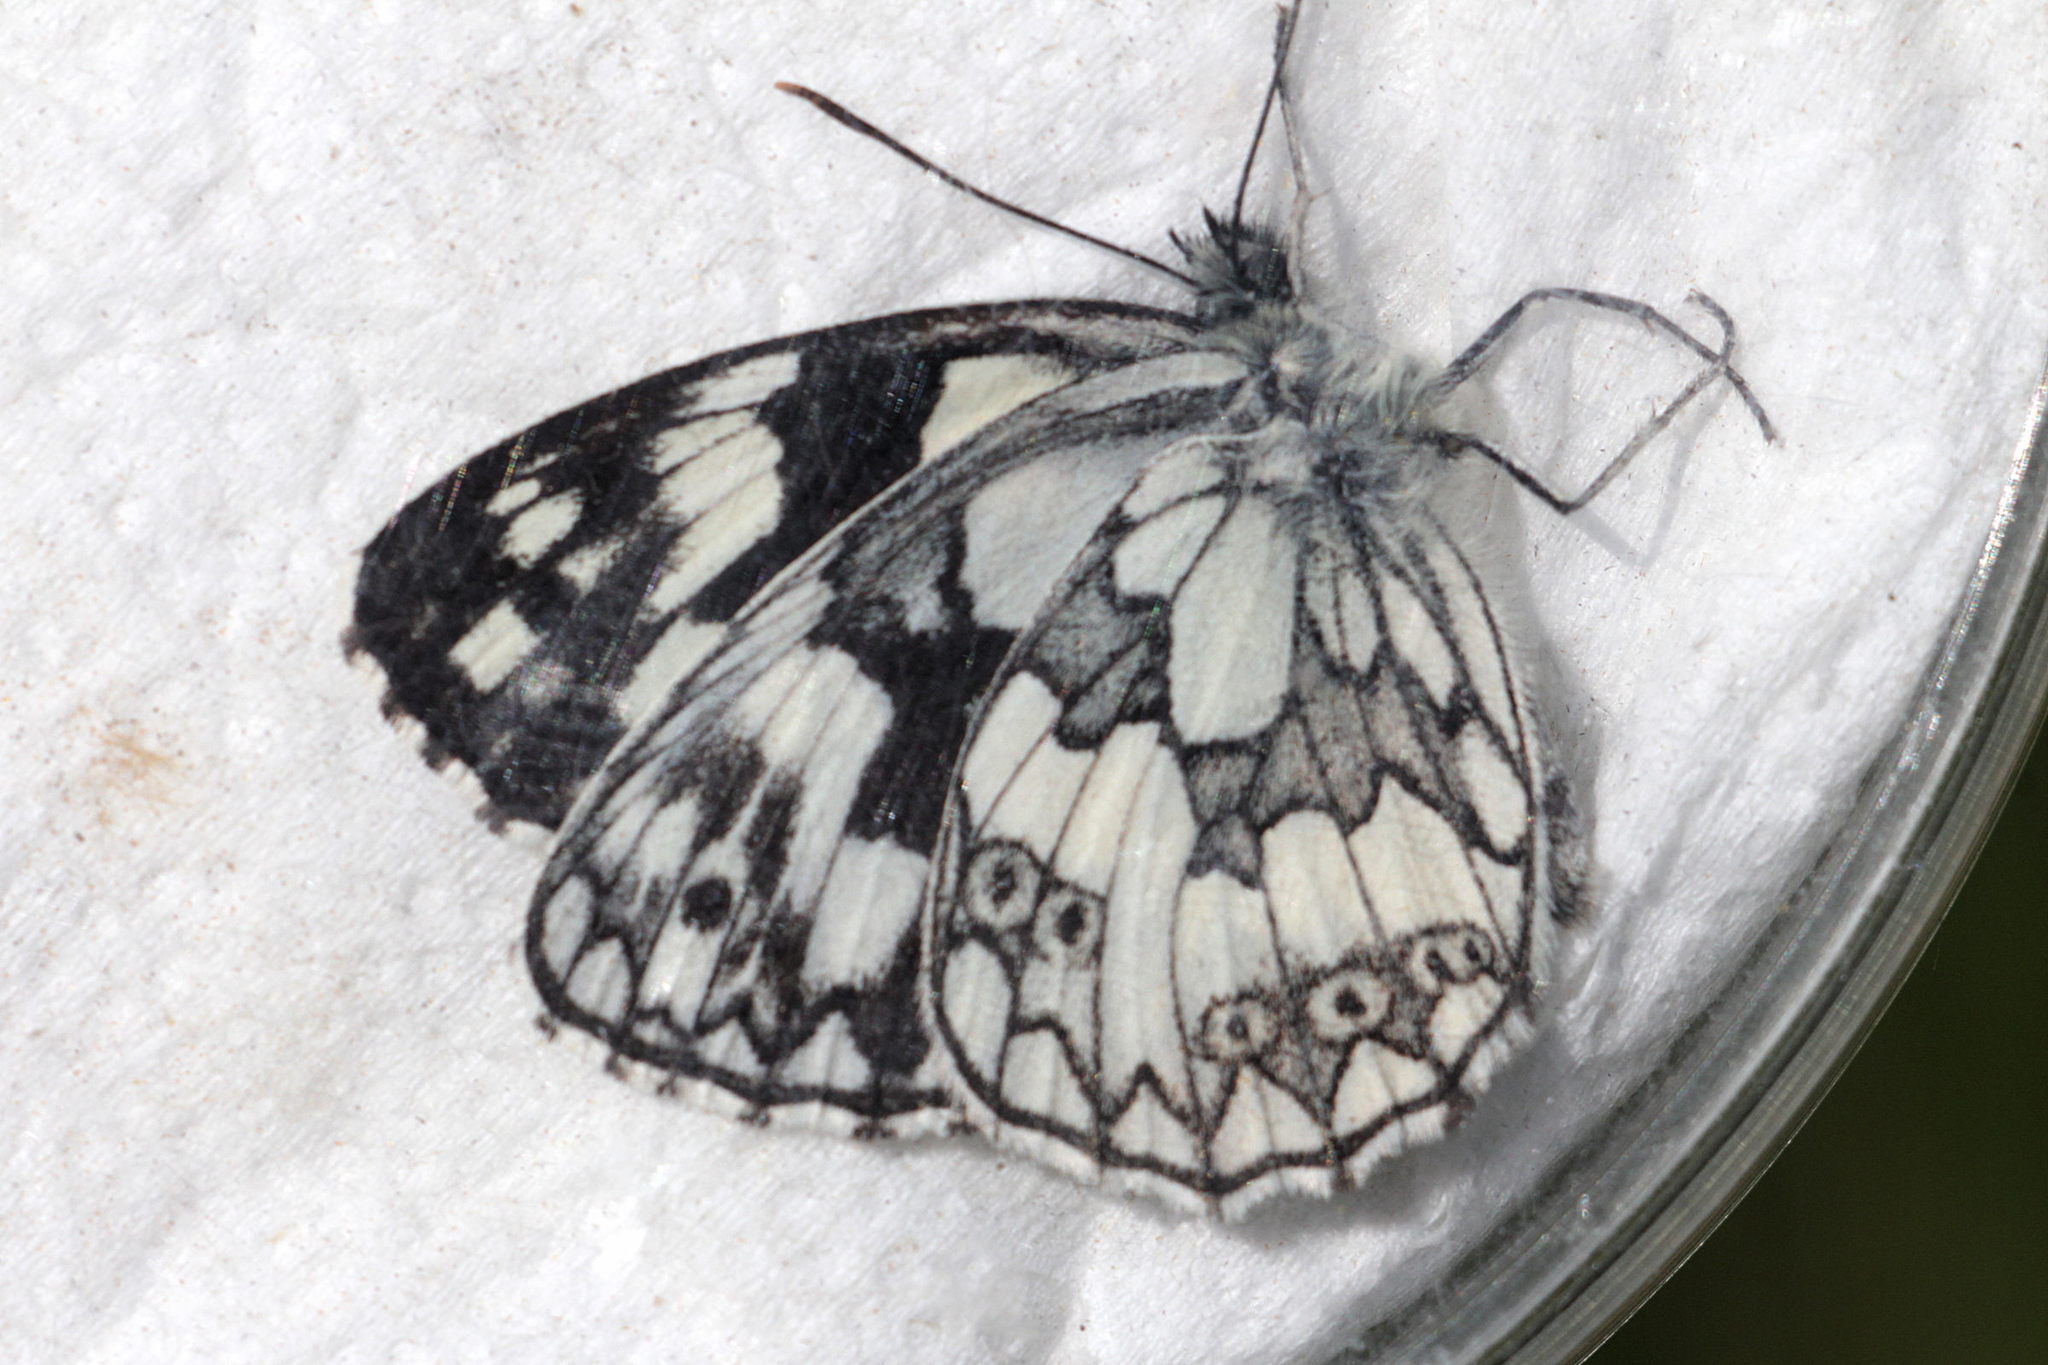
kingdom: Animalia
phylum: Arthropoda
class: Insecta
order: Lepidoptera
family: Nymphalidae
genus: Melanargia
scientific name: Melanargia galathea
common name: Marbled white
